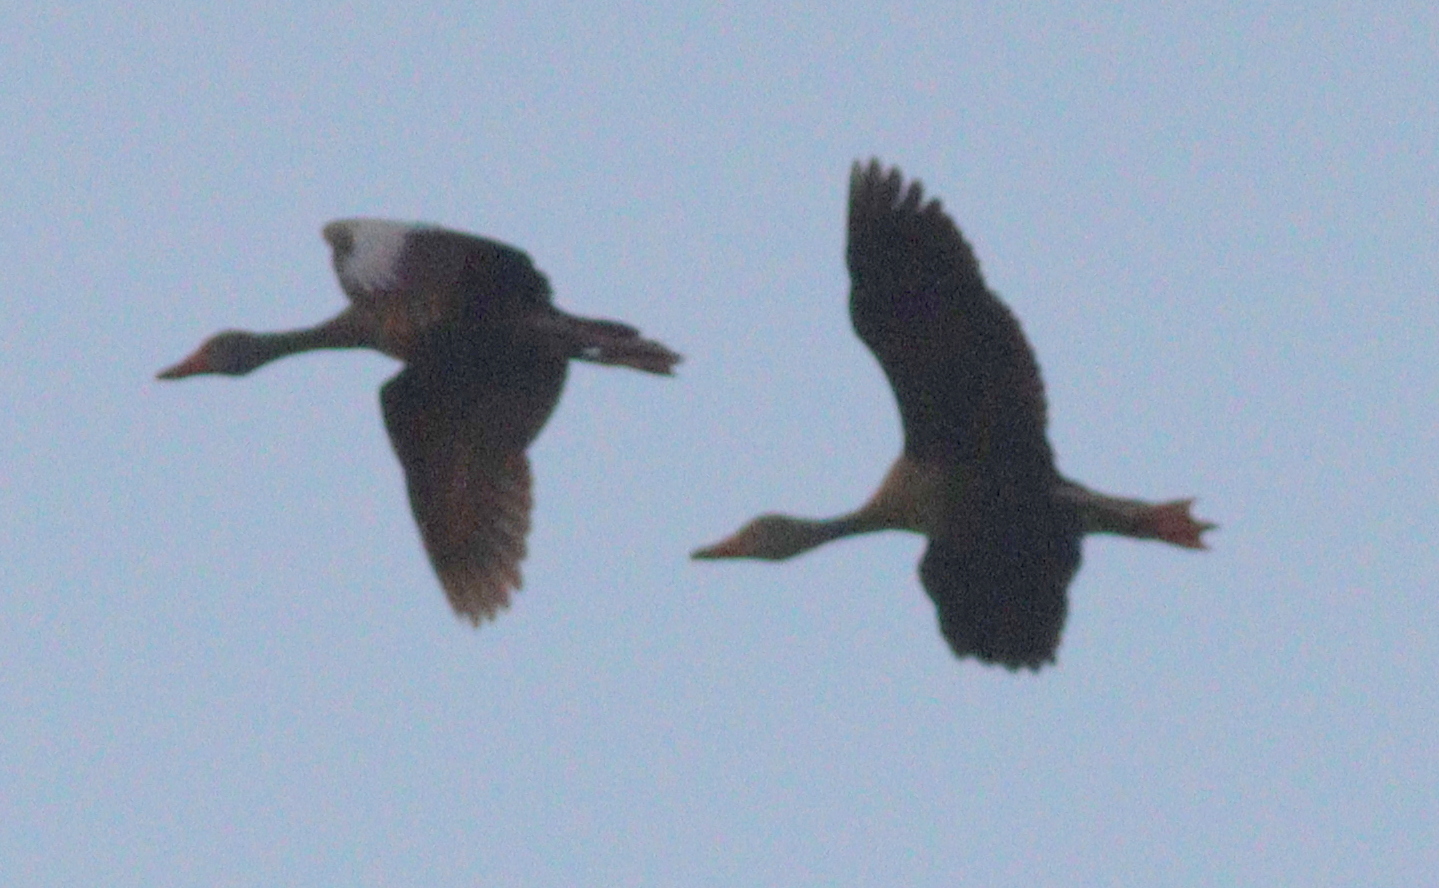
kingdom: Animalia
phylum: Chordata
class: Aves
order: Anseriformes
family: Anatidae
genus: Dendrocygna
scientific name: Dendrocygna autumnalis
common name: Black-bellied whistling duck
